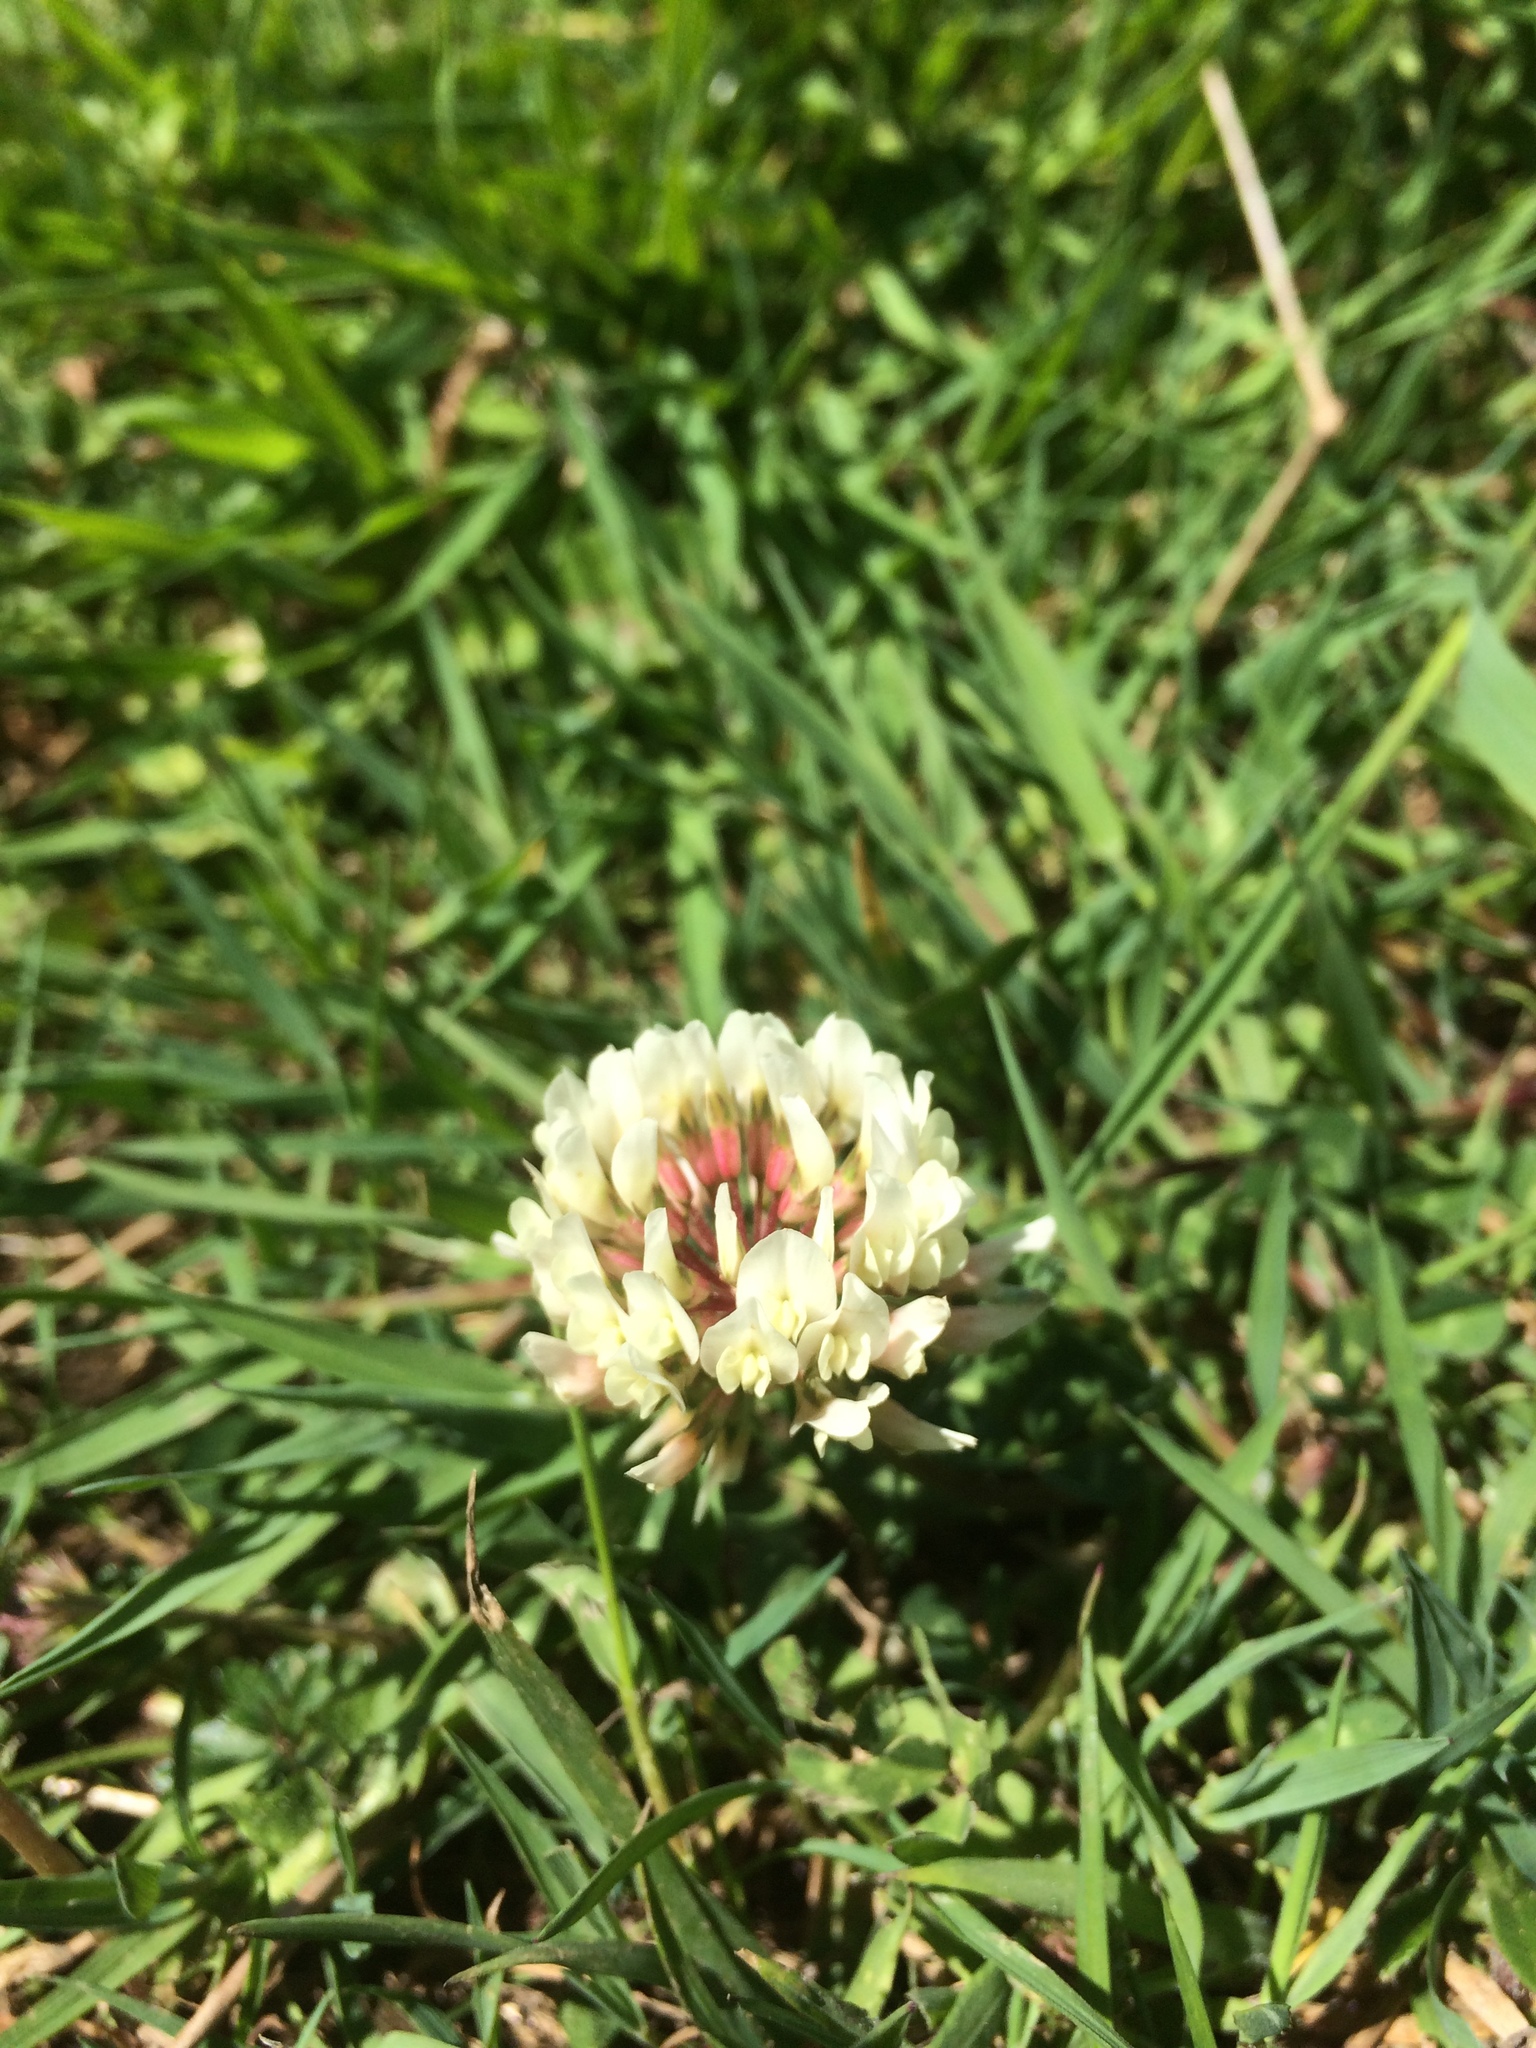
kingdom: Plantae
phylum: Tracheophyta
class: Magnoliopsida
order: Fabales
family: Fabaceae
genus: Trifolium
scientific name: Trifolium repens
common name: White clover
